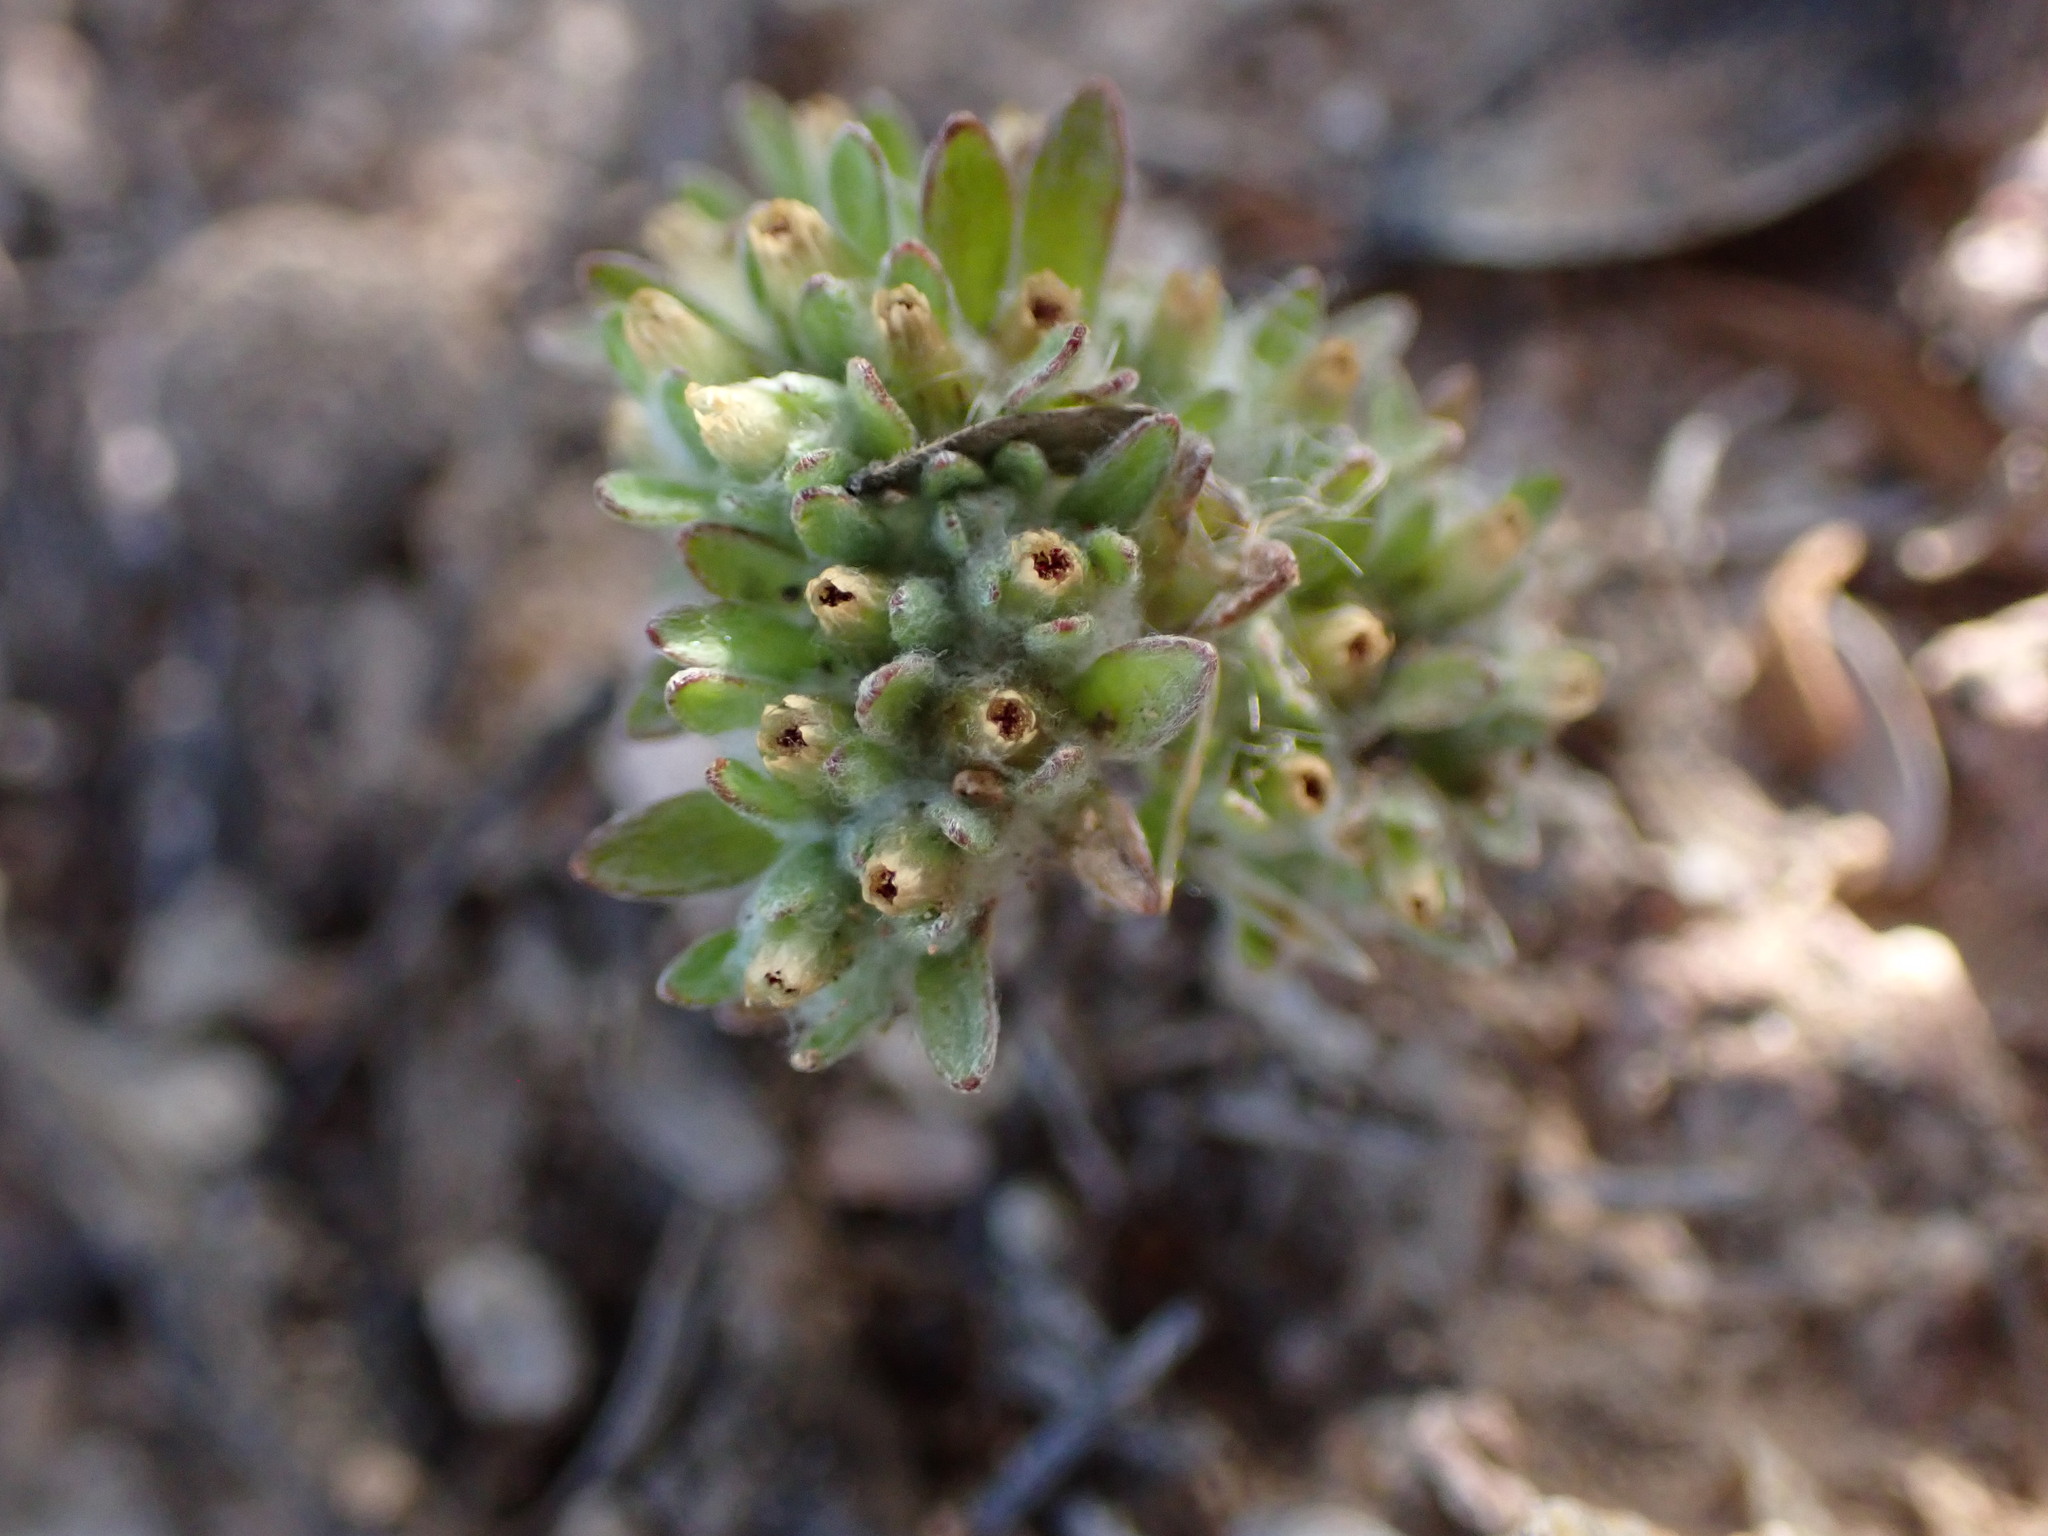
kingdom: Plantae
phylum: Tracheophyta
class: Magnoliopsida
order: Asterales
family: Asteraceae
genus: Lasiopogon
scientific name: Lasiopogon glomerulatus
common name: Green cat thorn
